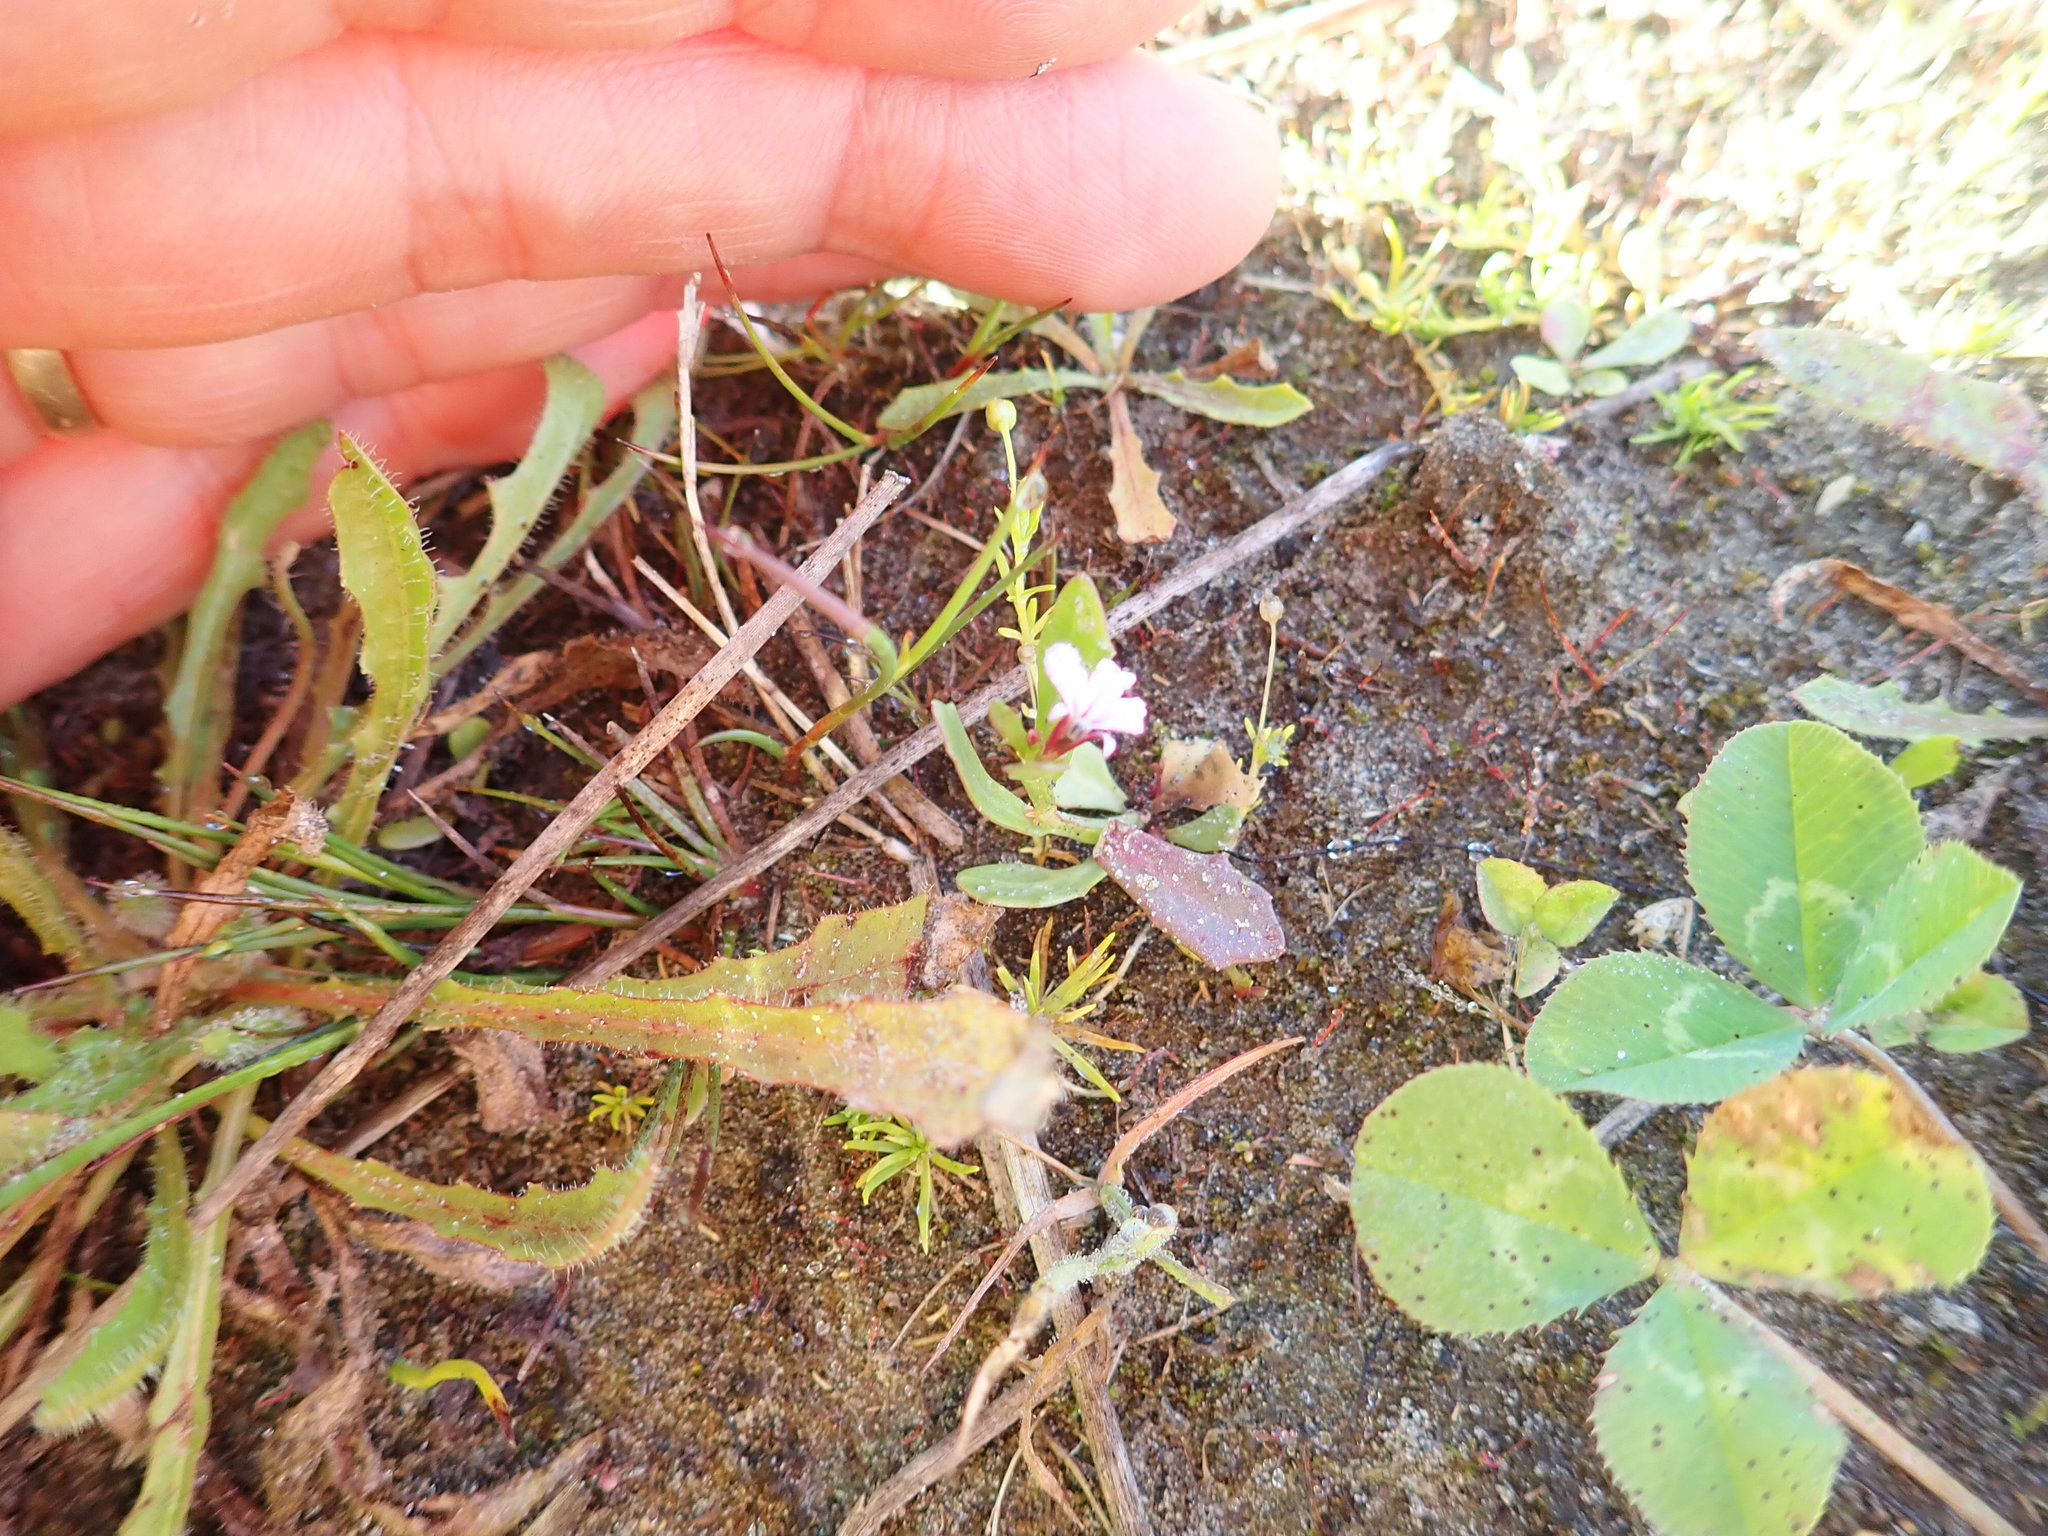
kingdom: Plantae
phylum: Tracheophyta
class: Magnoliopsida
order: Asterales
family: Campanulaceae
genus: Lobelia
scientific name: Lobelia anceps
